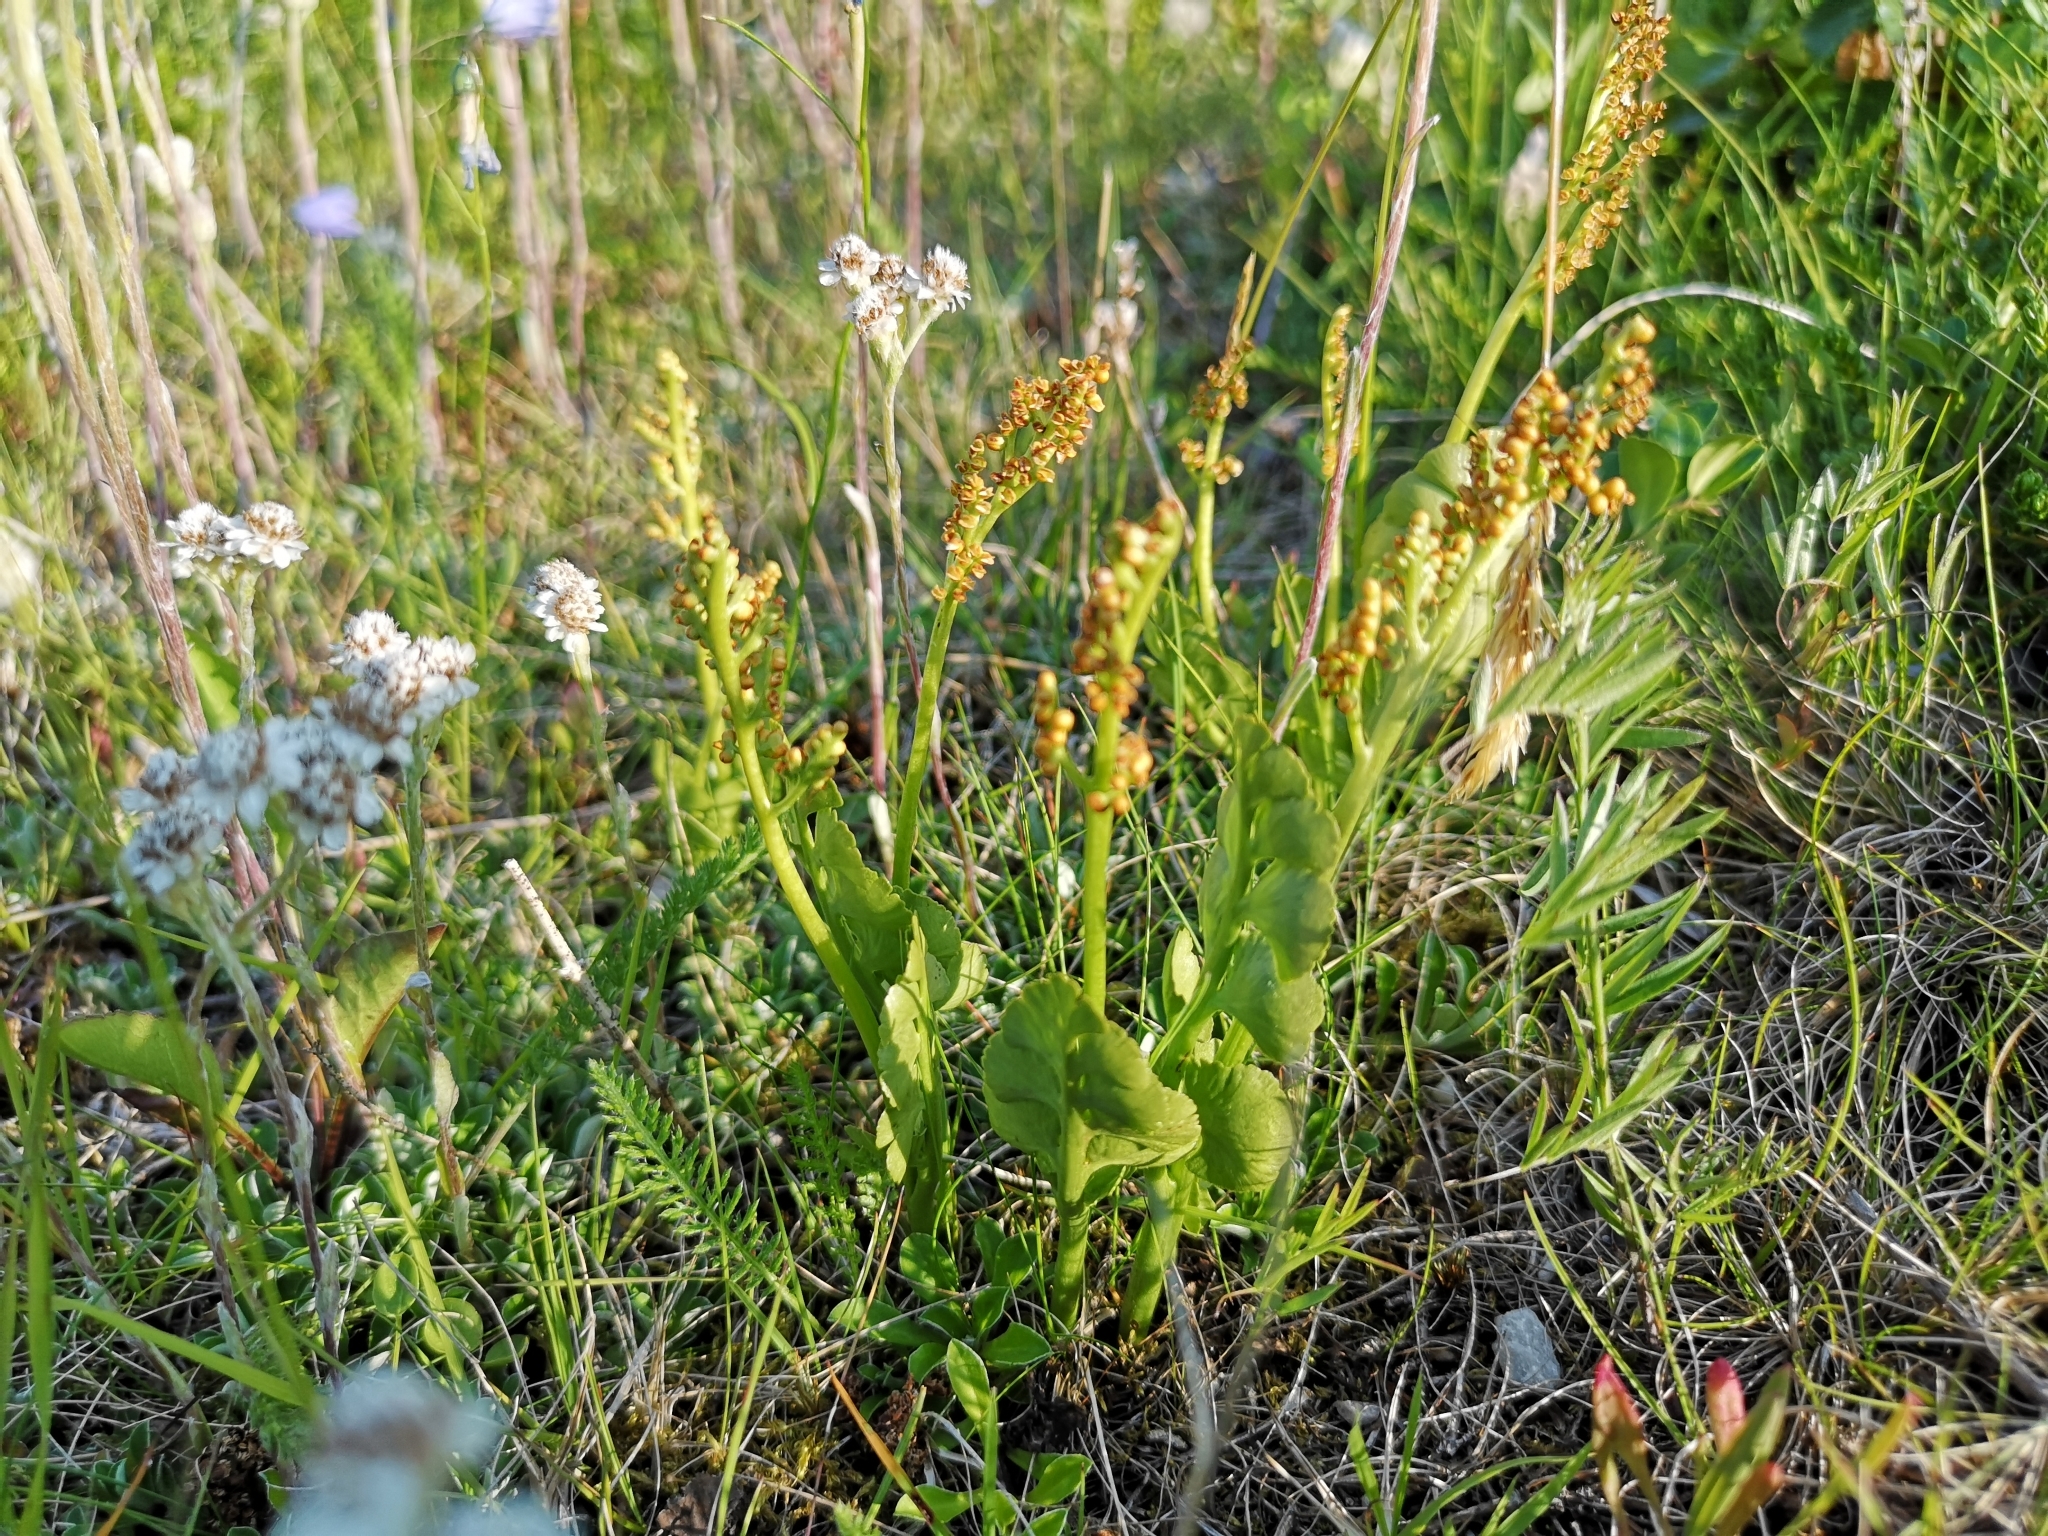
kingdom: Plantae
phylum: Tracheophyta
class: Polypodiopsida
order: Ophioglossales
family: Ophioglossaceae
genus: Botrychium
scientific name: Botrychium lunaria
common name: Moonwort
